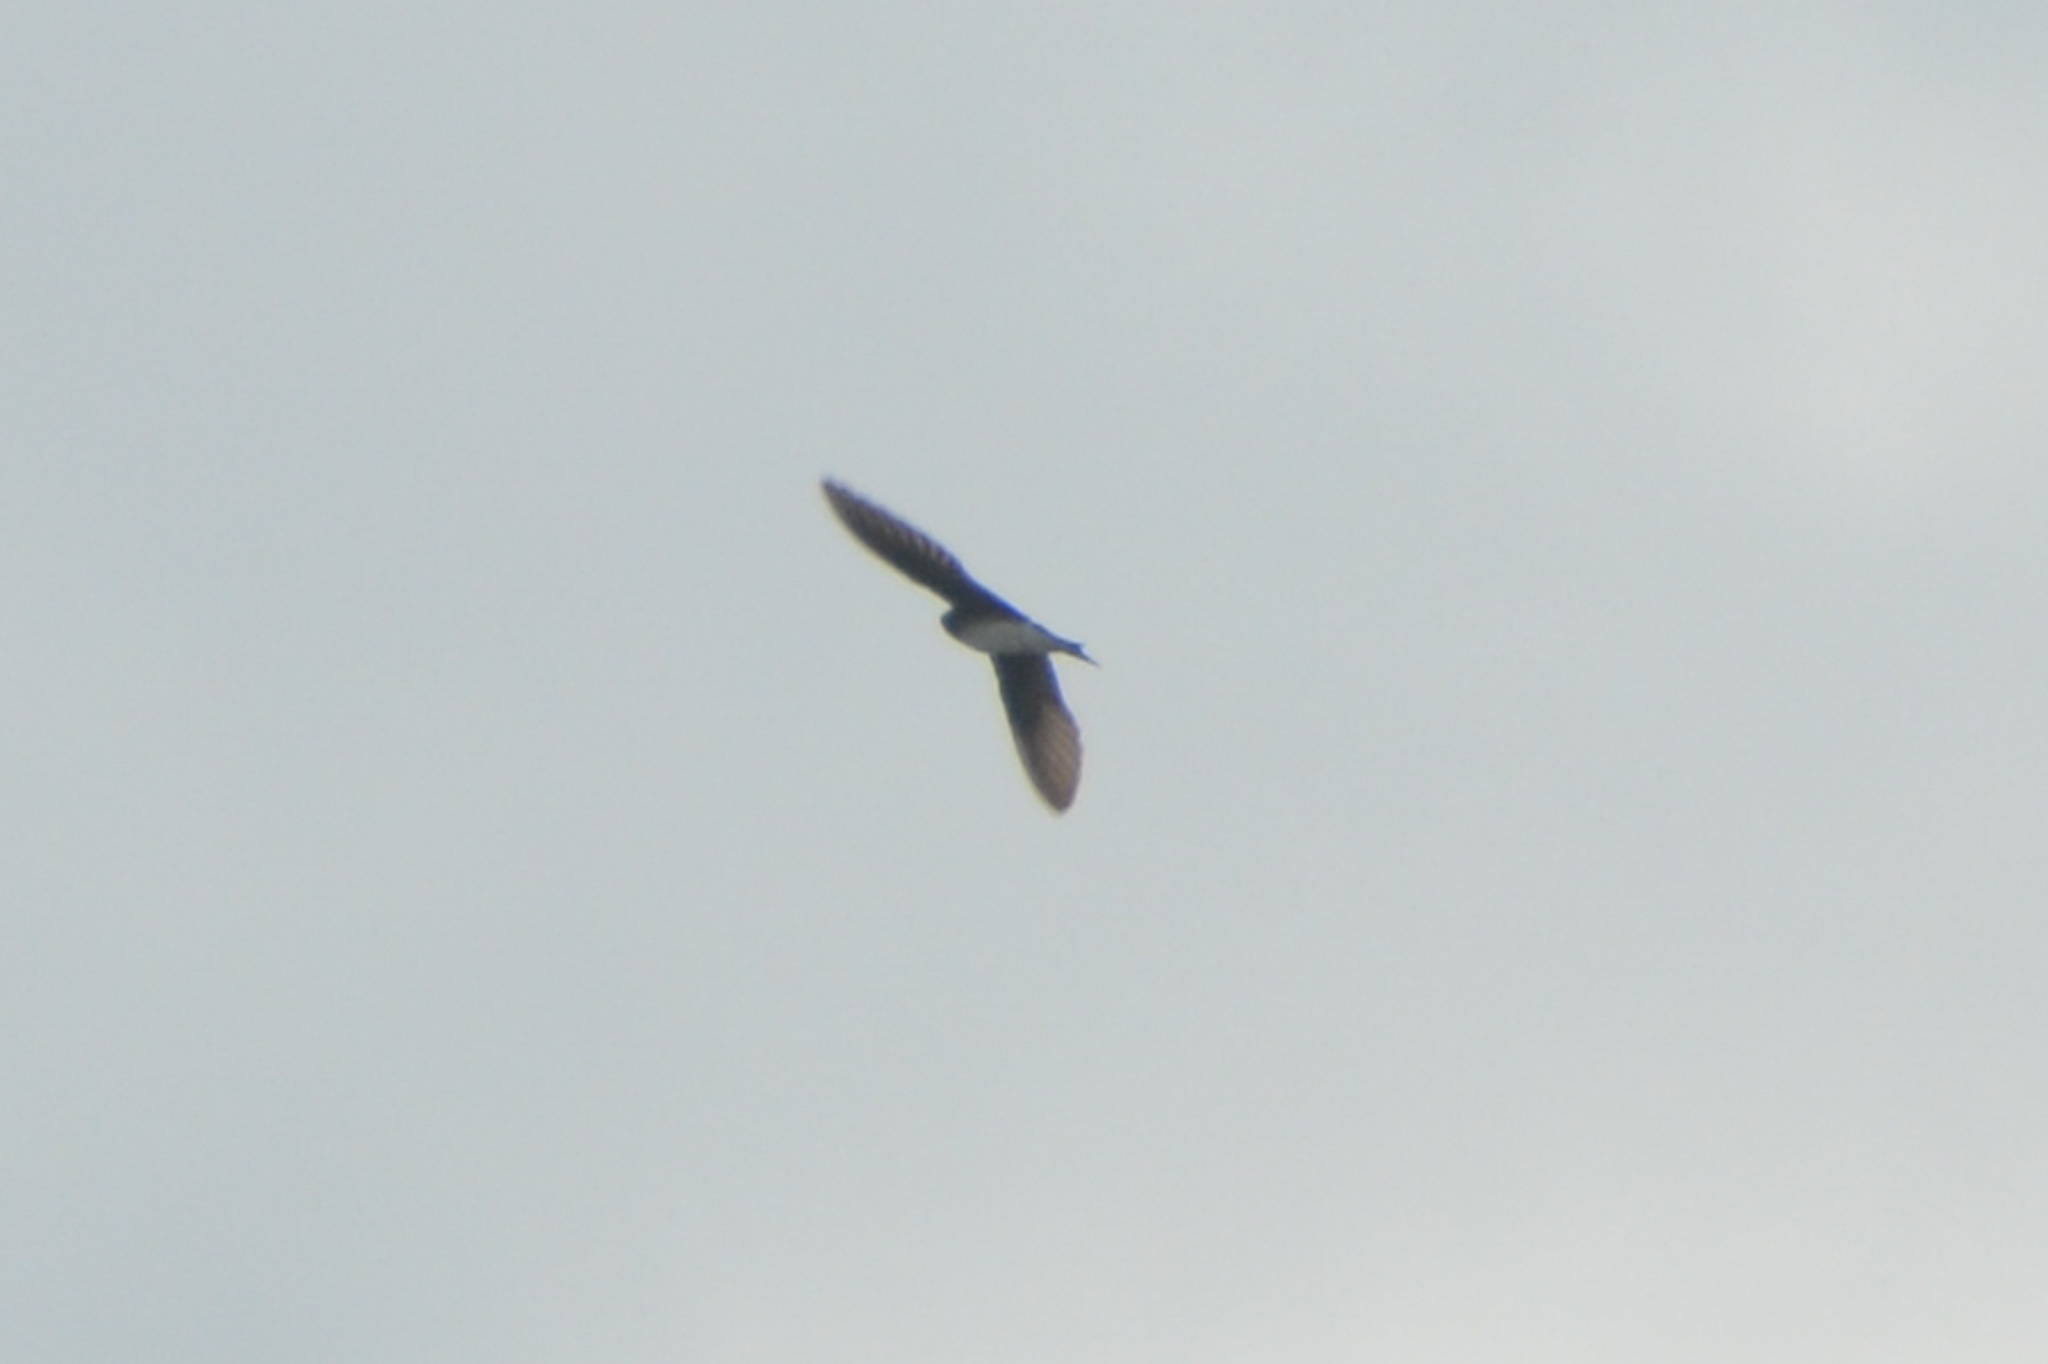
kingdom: Animalia
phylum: Chordata
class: Aves
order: Passeriformes
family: Hirundinidae
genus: Progne
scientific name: Progne chalybea
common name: Grey-breasted martin
